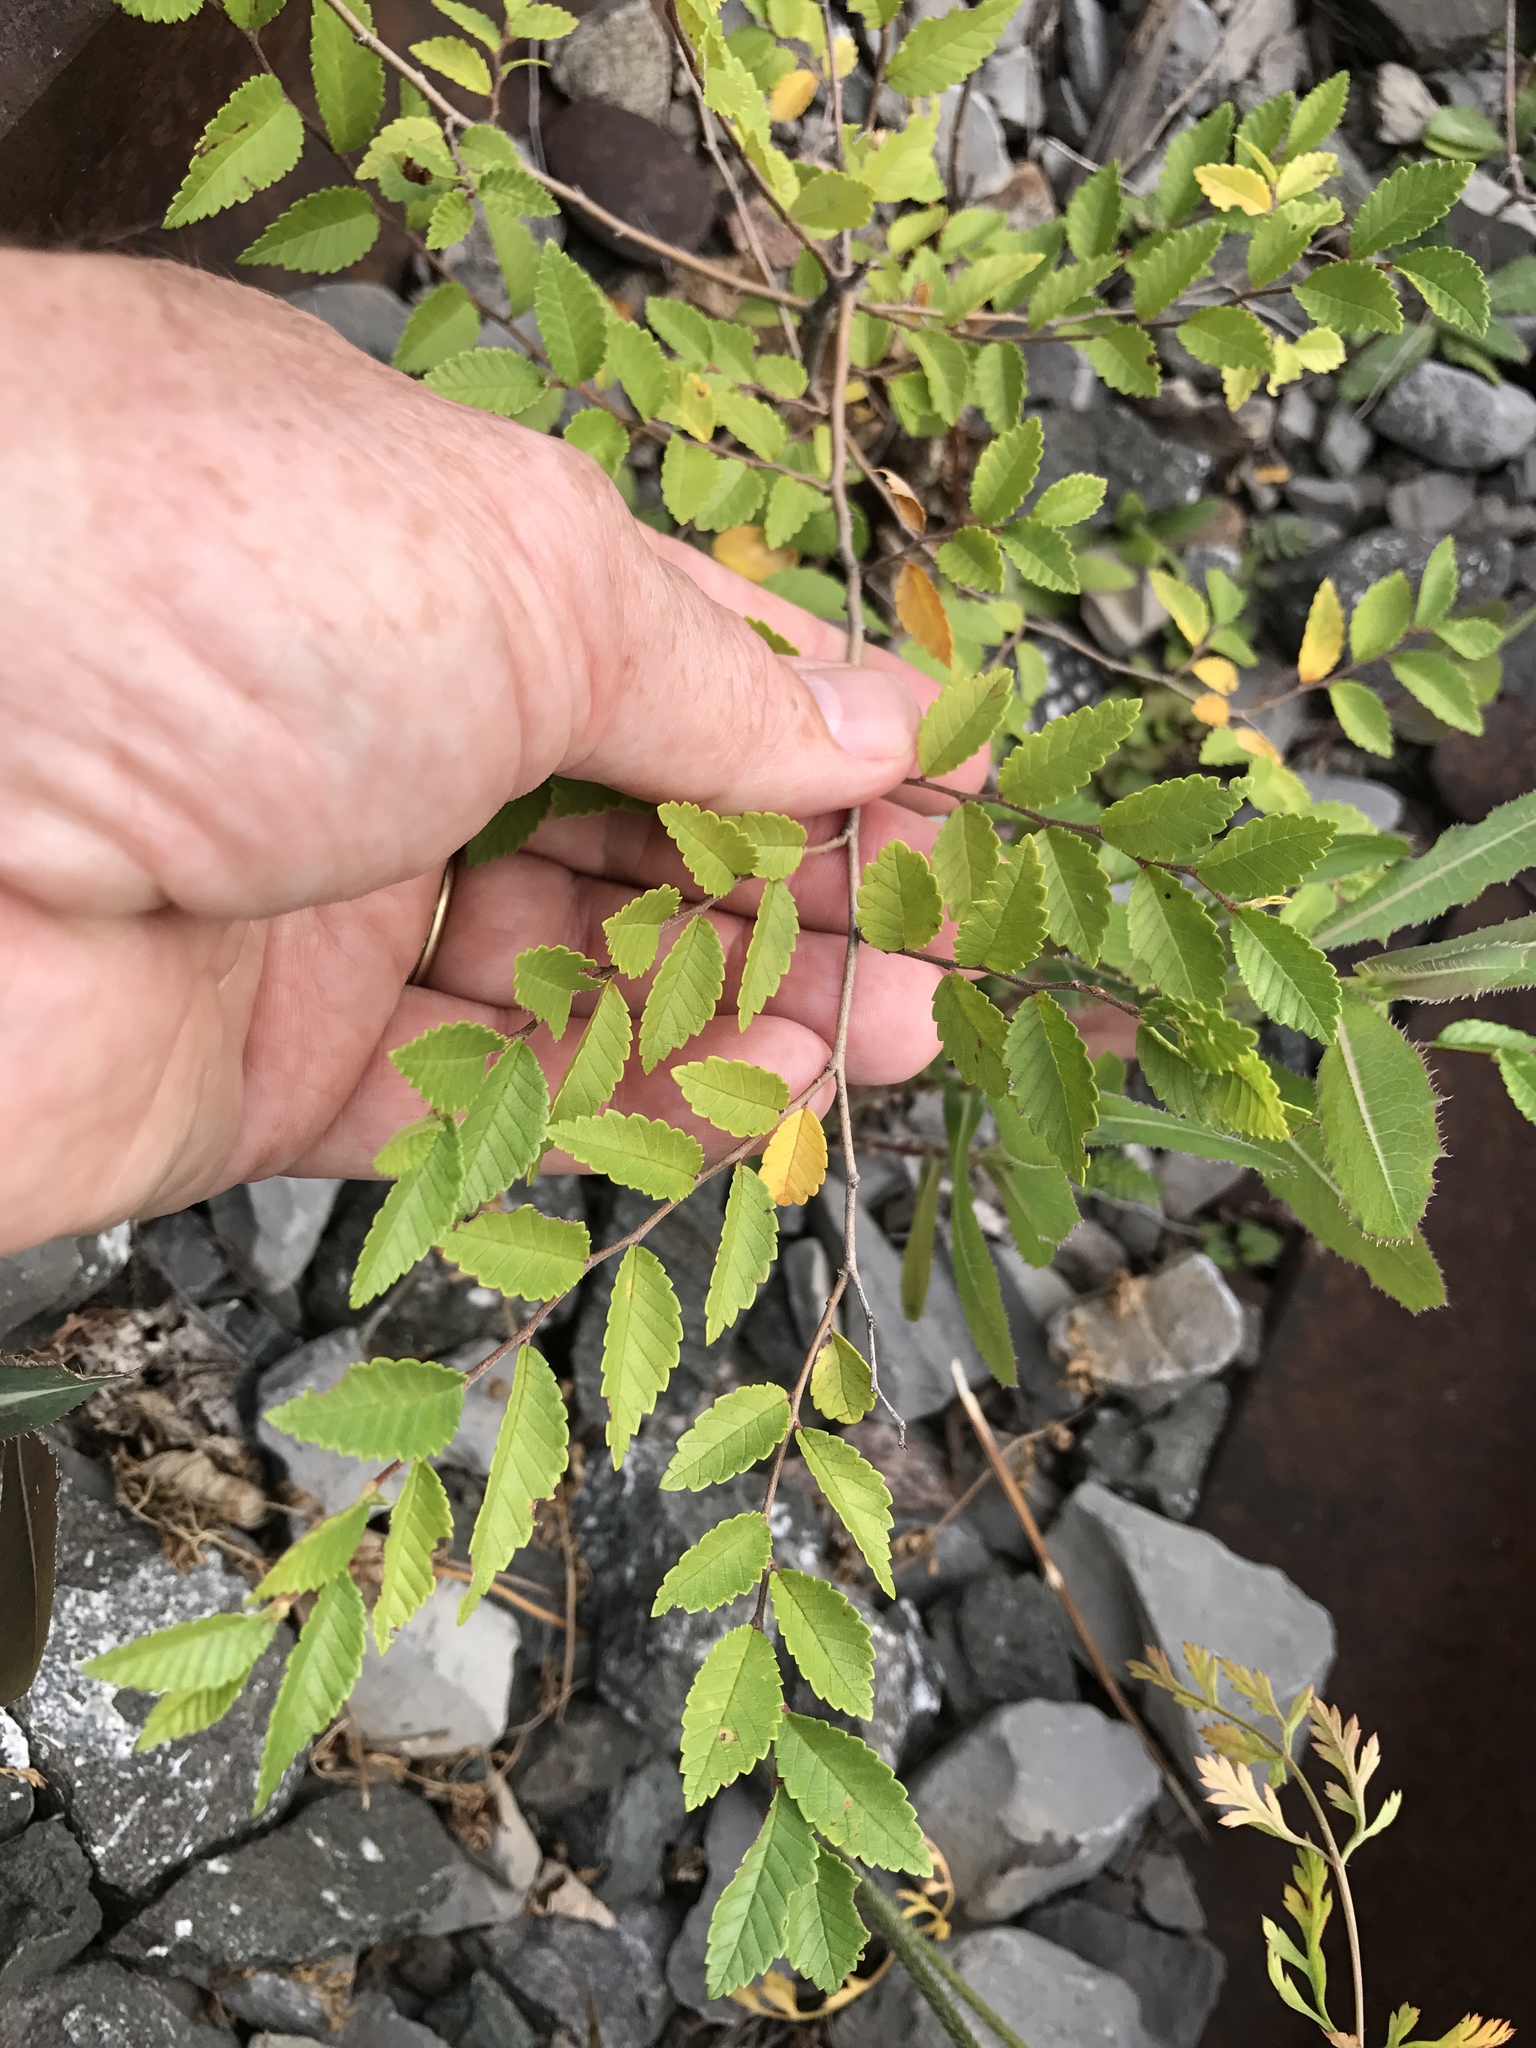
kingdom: Plantae
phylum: Tracheophyta
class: Magnoliopsida
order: Rosales
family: Ulmaceae
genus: Ulmus
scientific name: Ulmus pumila
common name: Siberian elm
